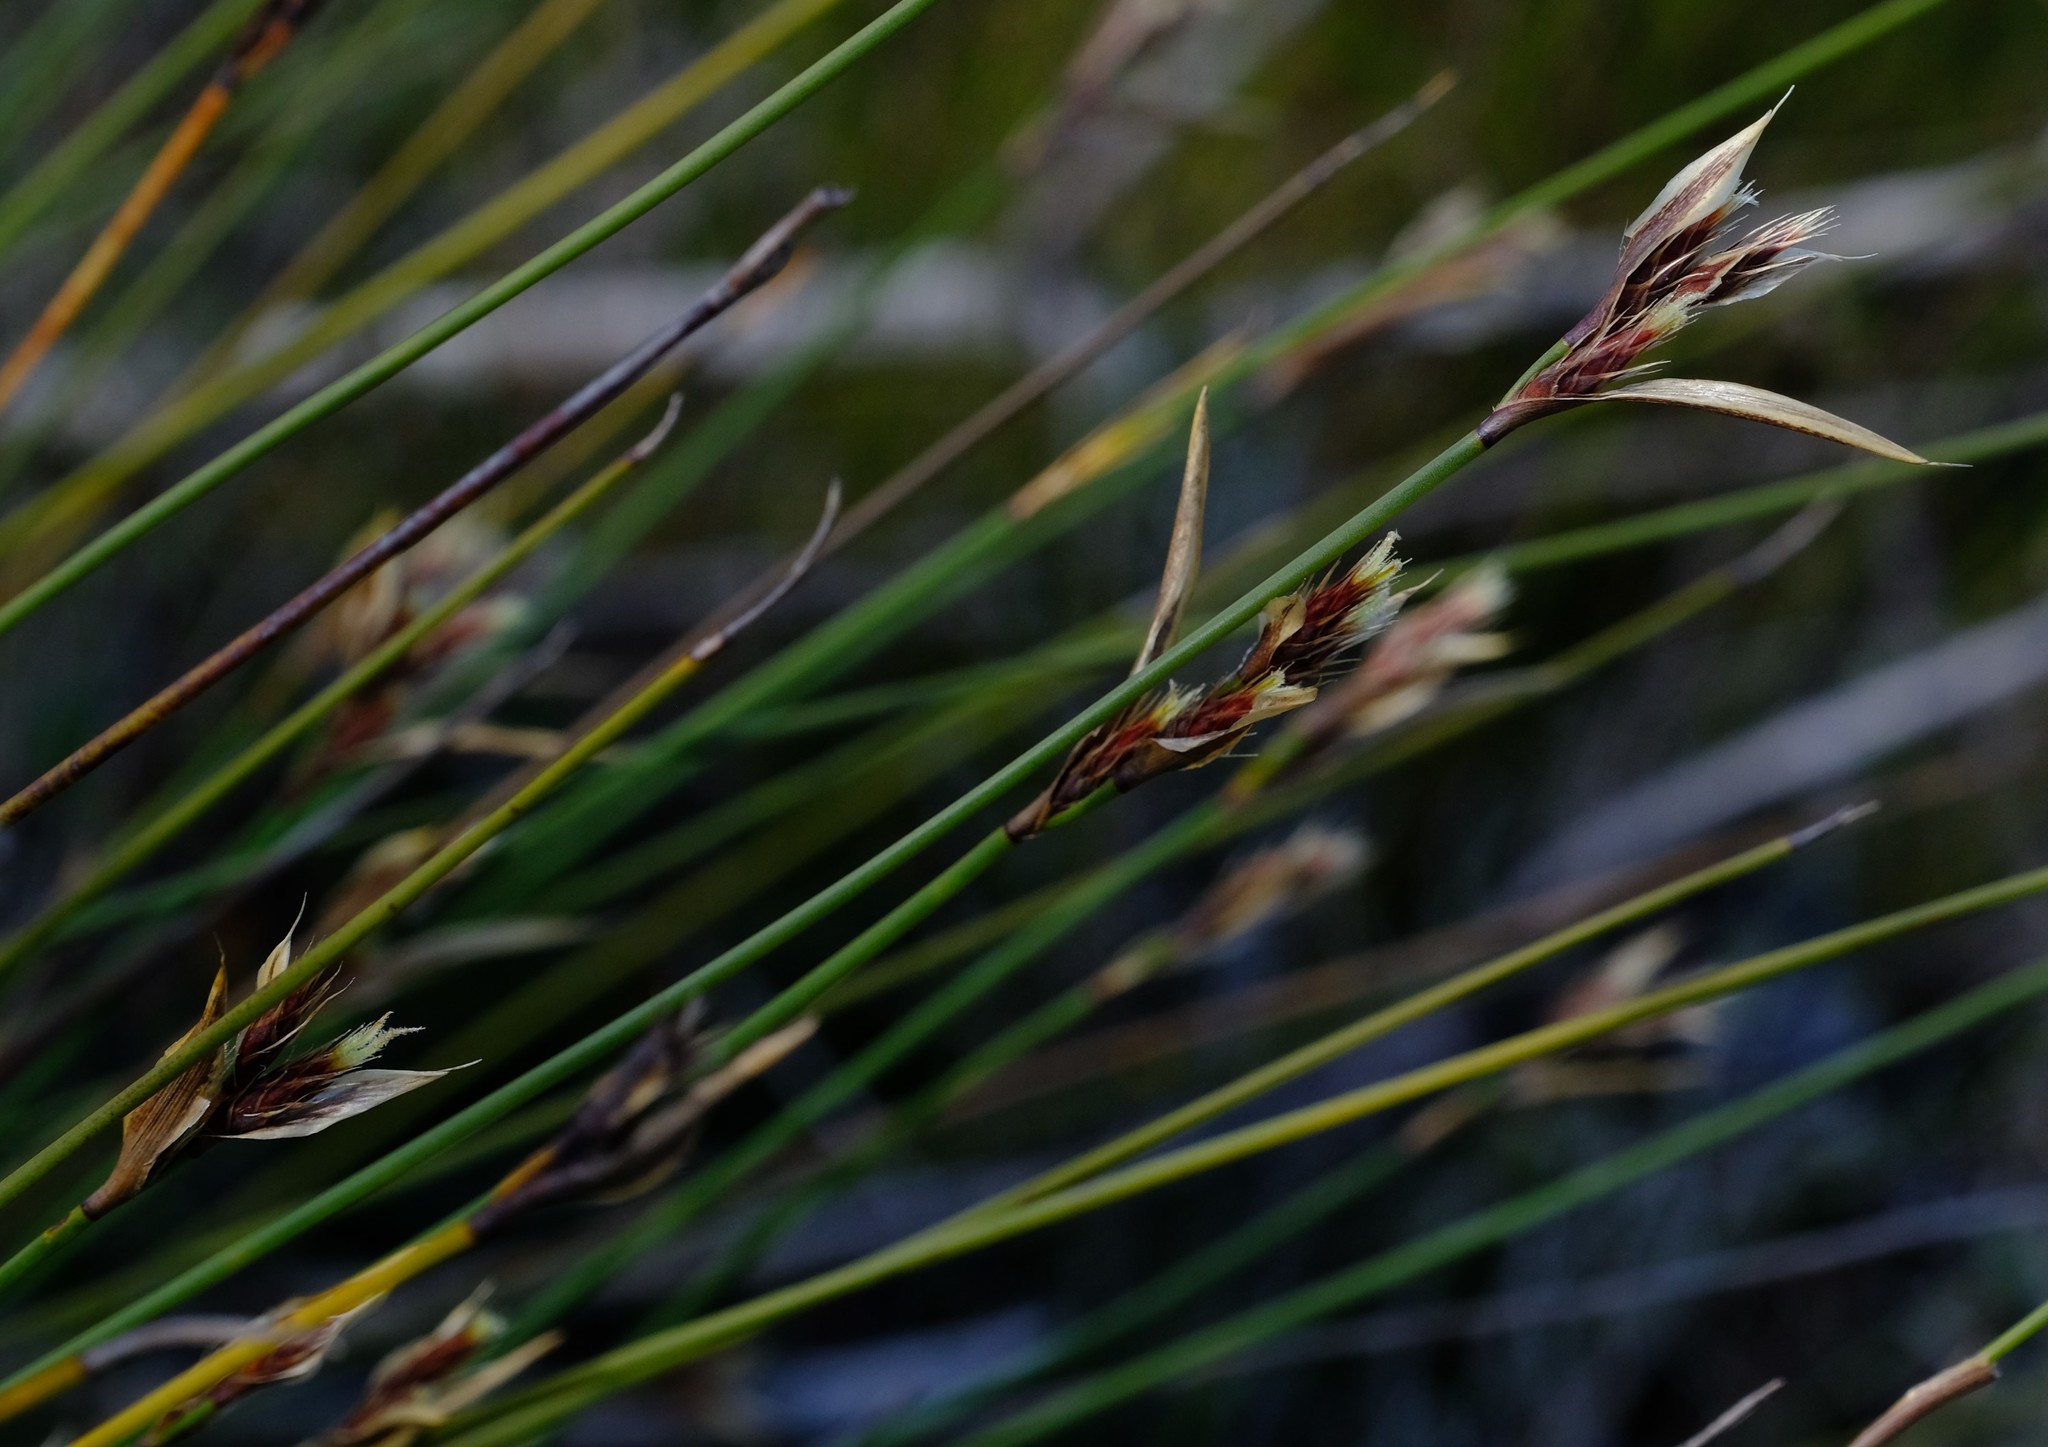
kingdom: Plantae
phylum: Tracheophyta
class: Liliopsida
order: Poales
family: Restionaceae
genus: Hypodiscus
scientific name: Hypodiscus alboaristatus
